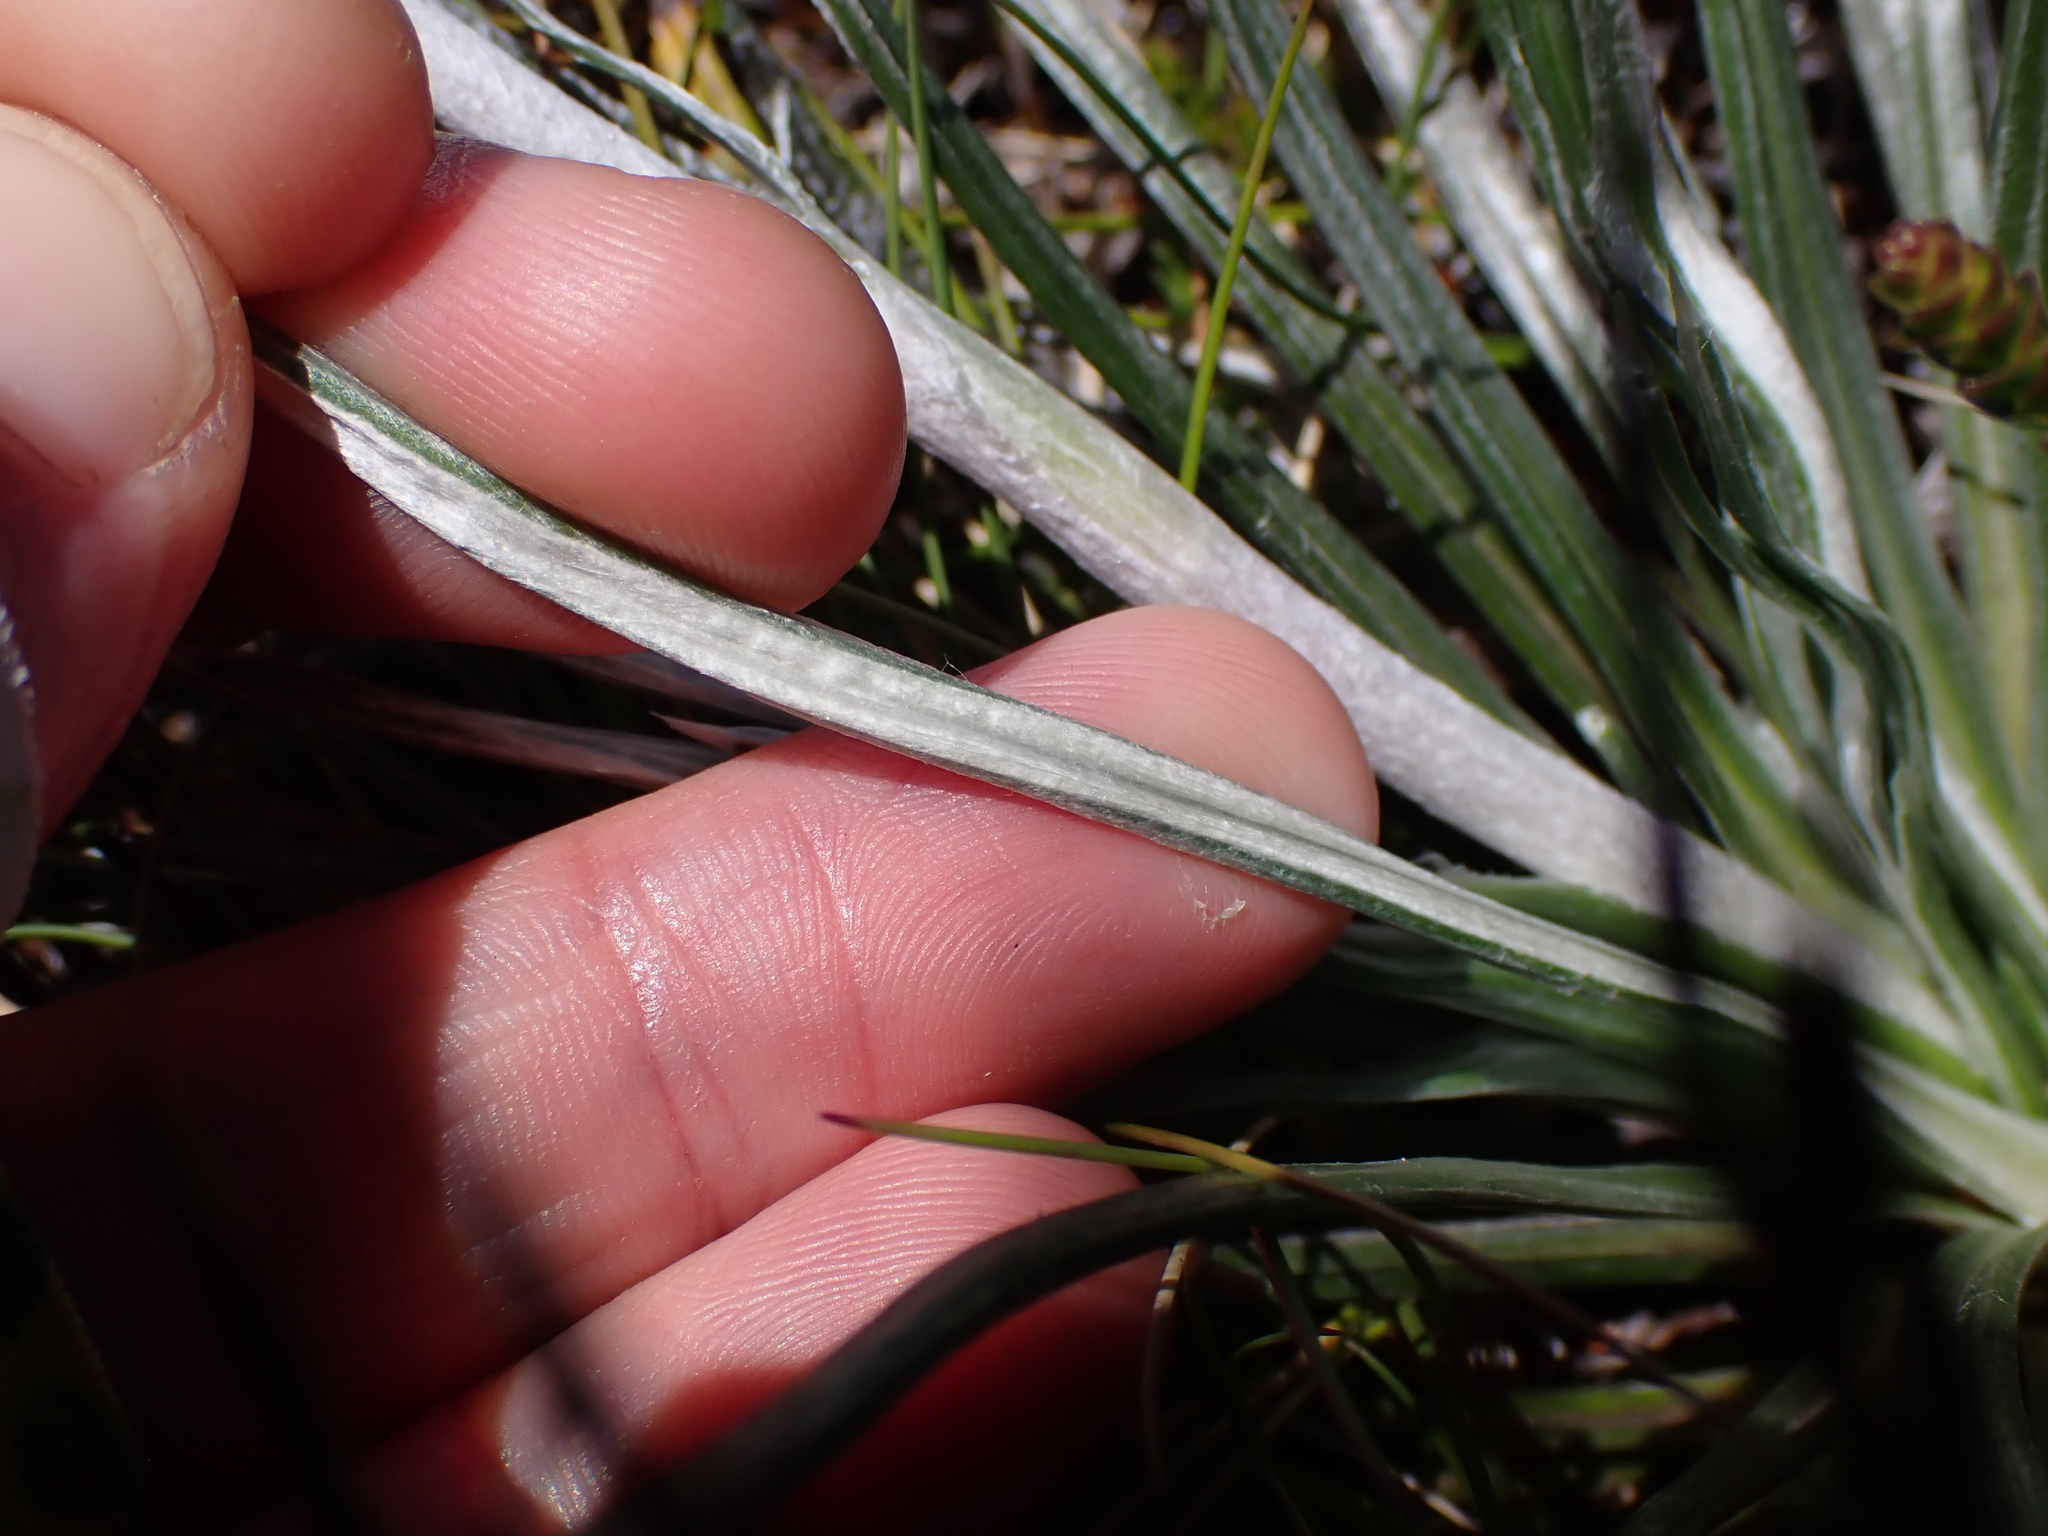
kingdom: Plantae
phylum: Tracheophyta
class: Magnoliopsida
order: Asterales
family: Asteraceae
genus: Celmisia
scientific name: Celmisia pugioniformis
